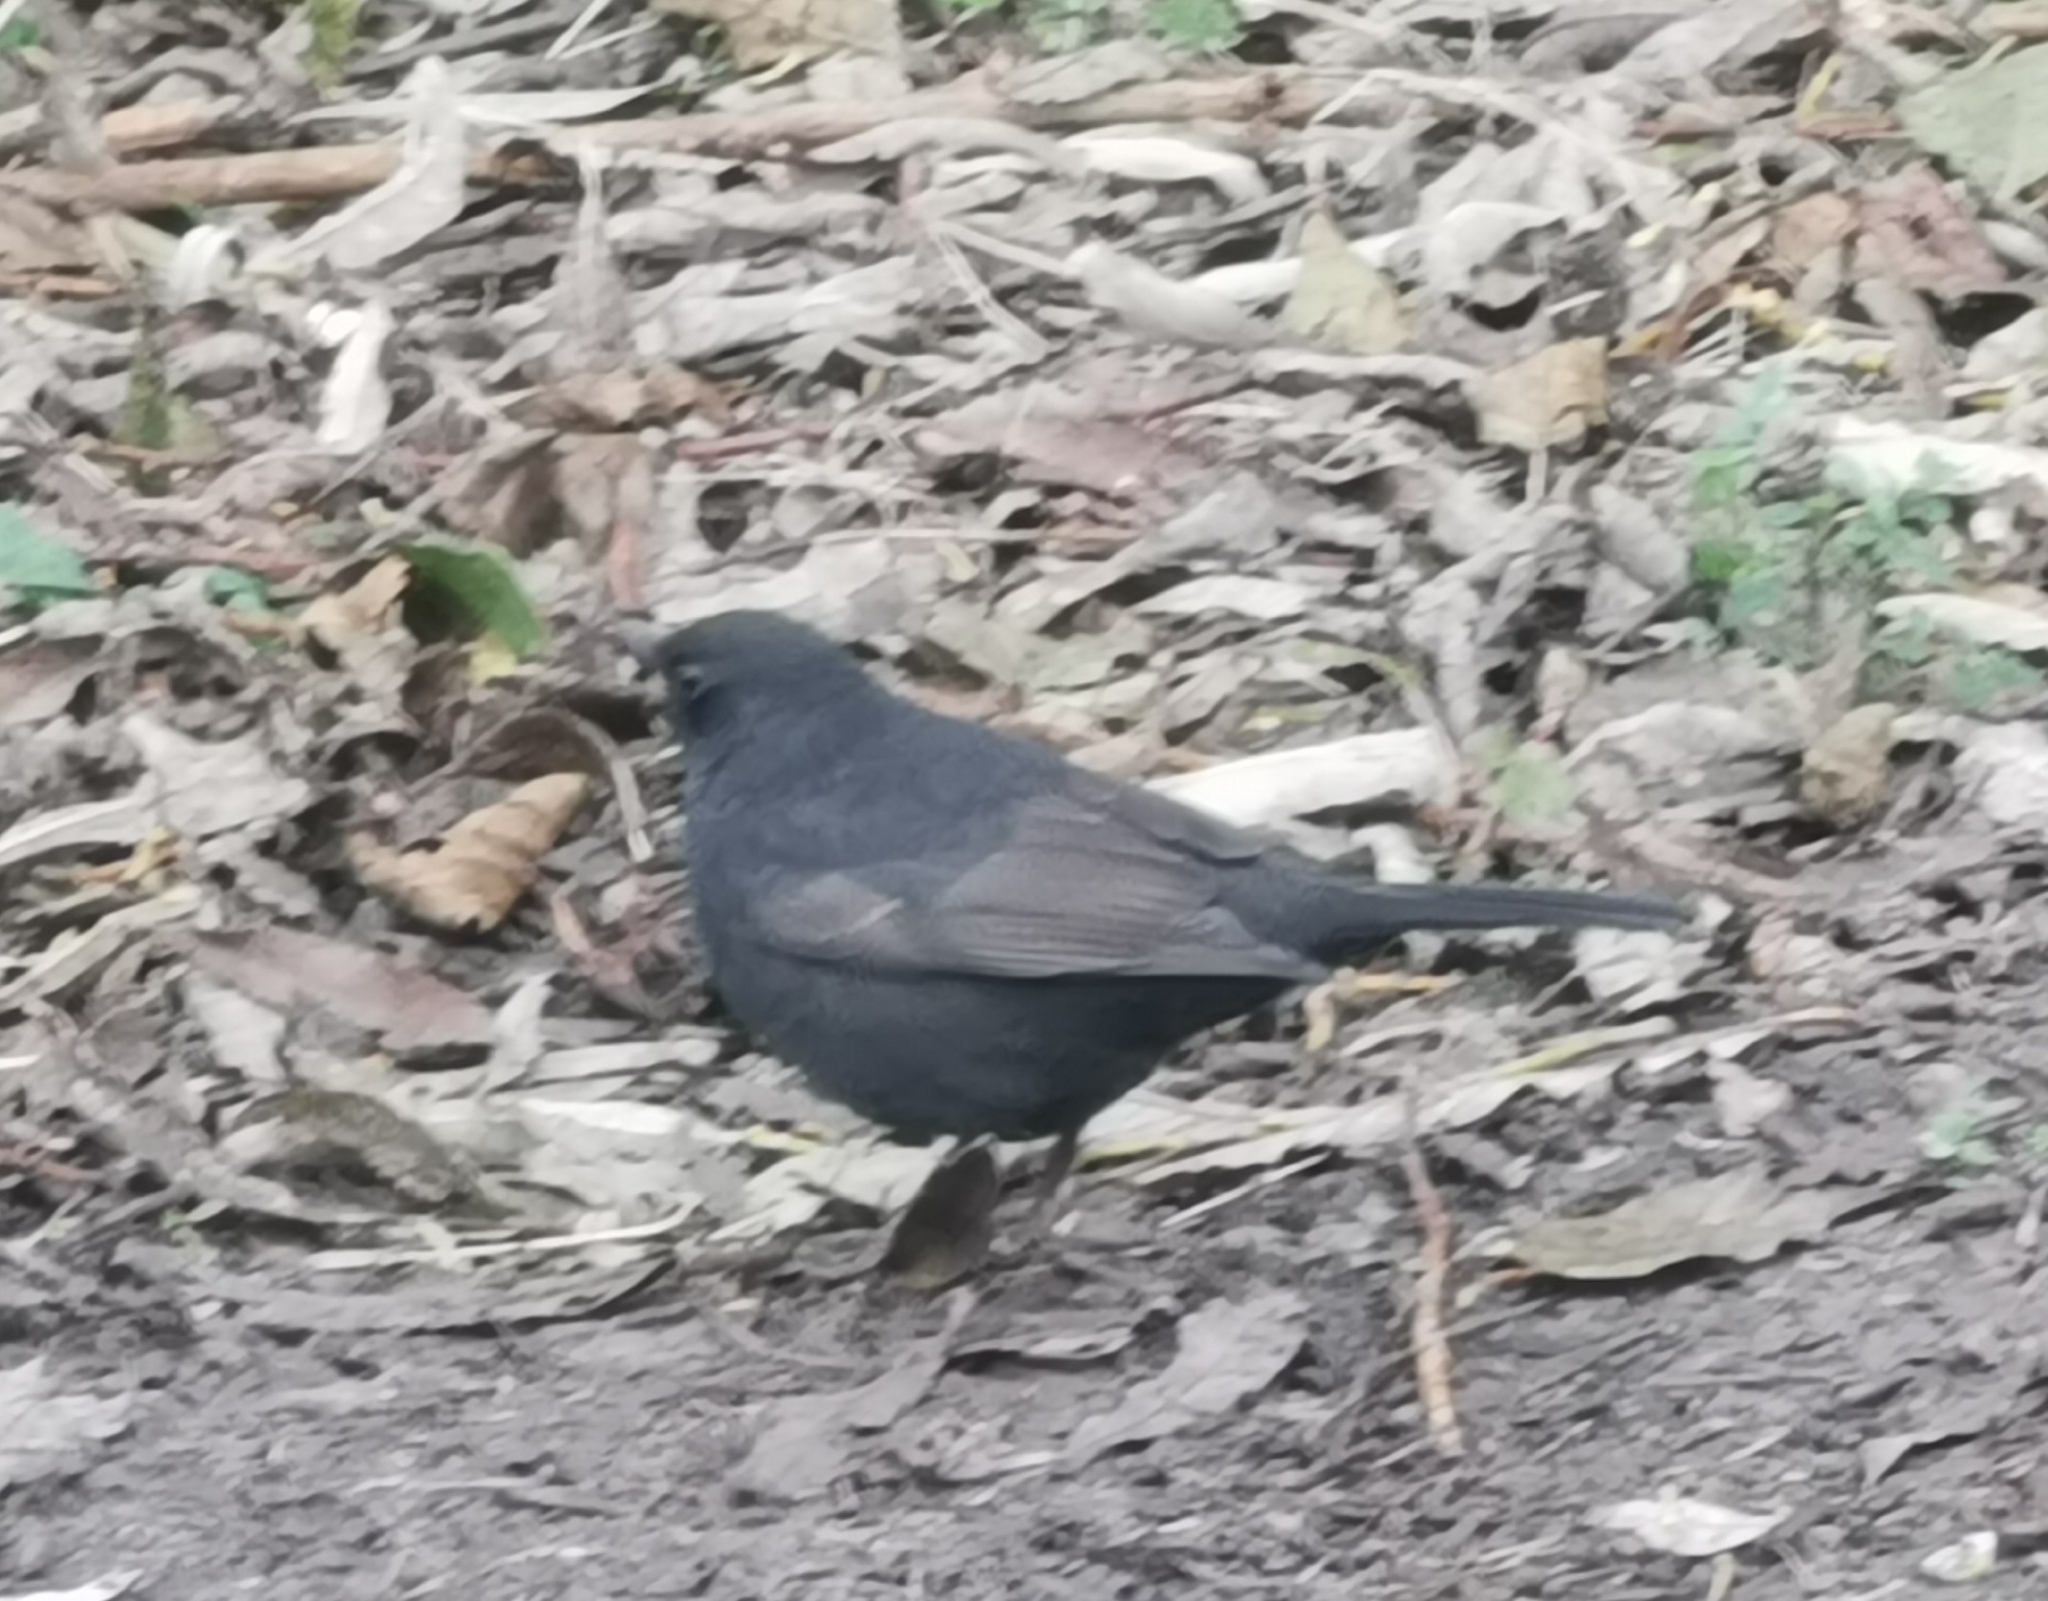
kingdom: Animalia
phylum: Chordata
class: Aves
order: Passeriformes
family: Turdidae
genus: Turdus
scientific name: Turdus merula
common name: Common blackbird
